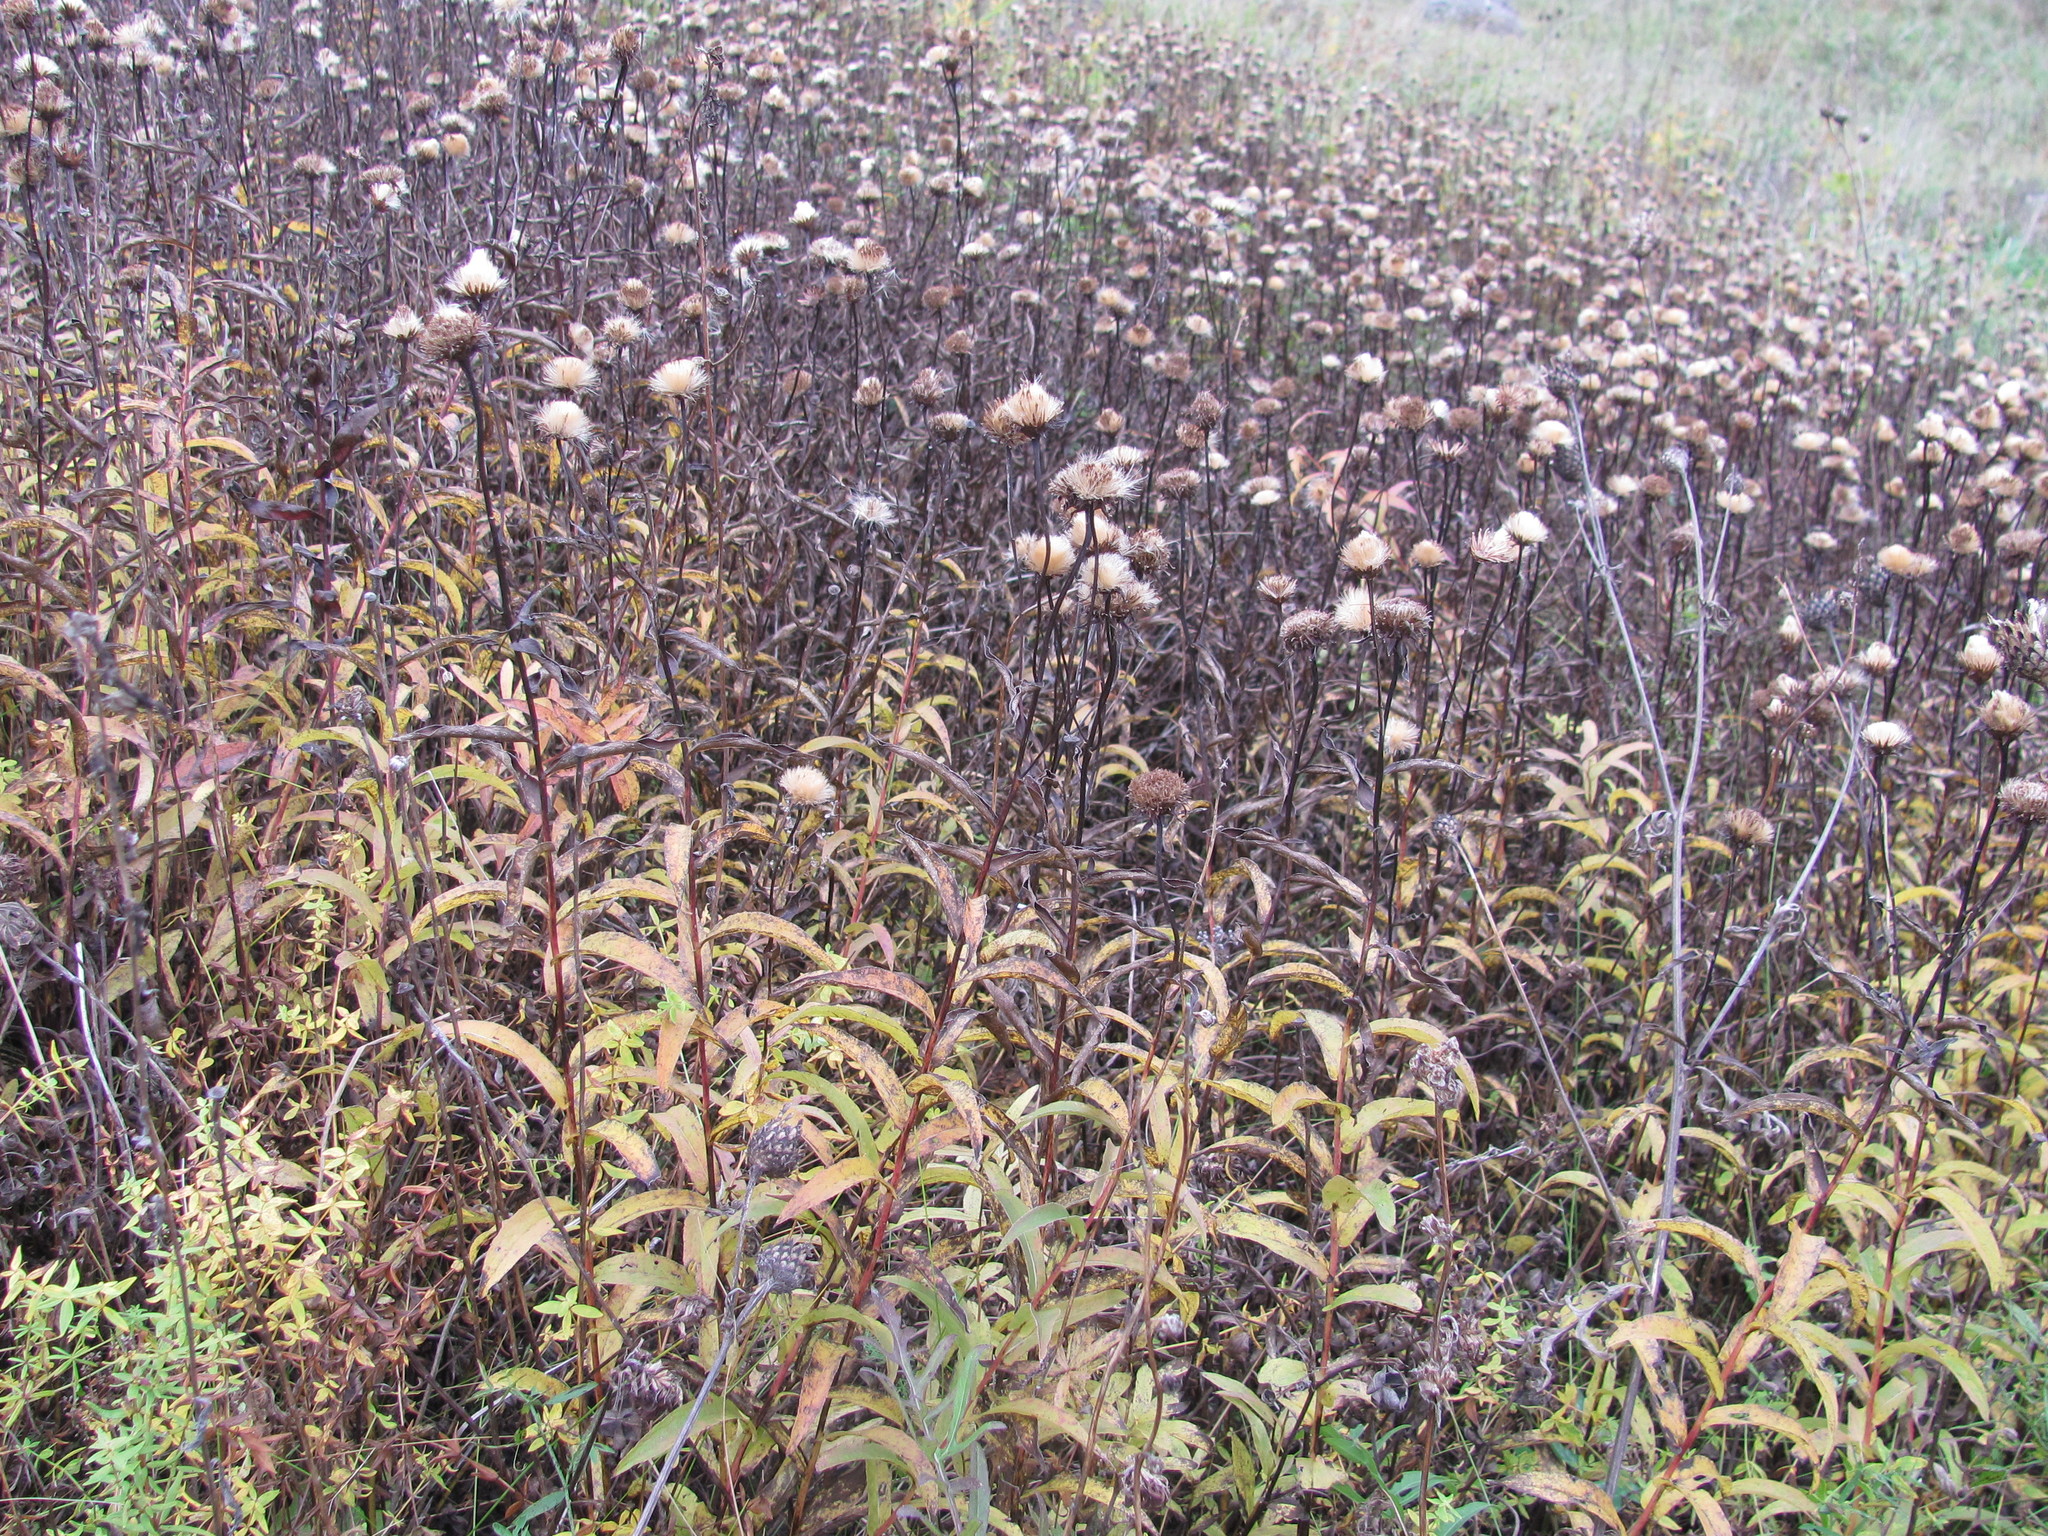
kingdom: Plantae
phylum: Tracheophyta
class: Magnoliopsida
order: Asterales
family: Asteraceae
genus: Pentanema
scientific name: Pentanema salicinum
